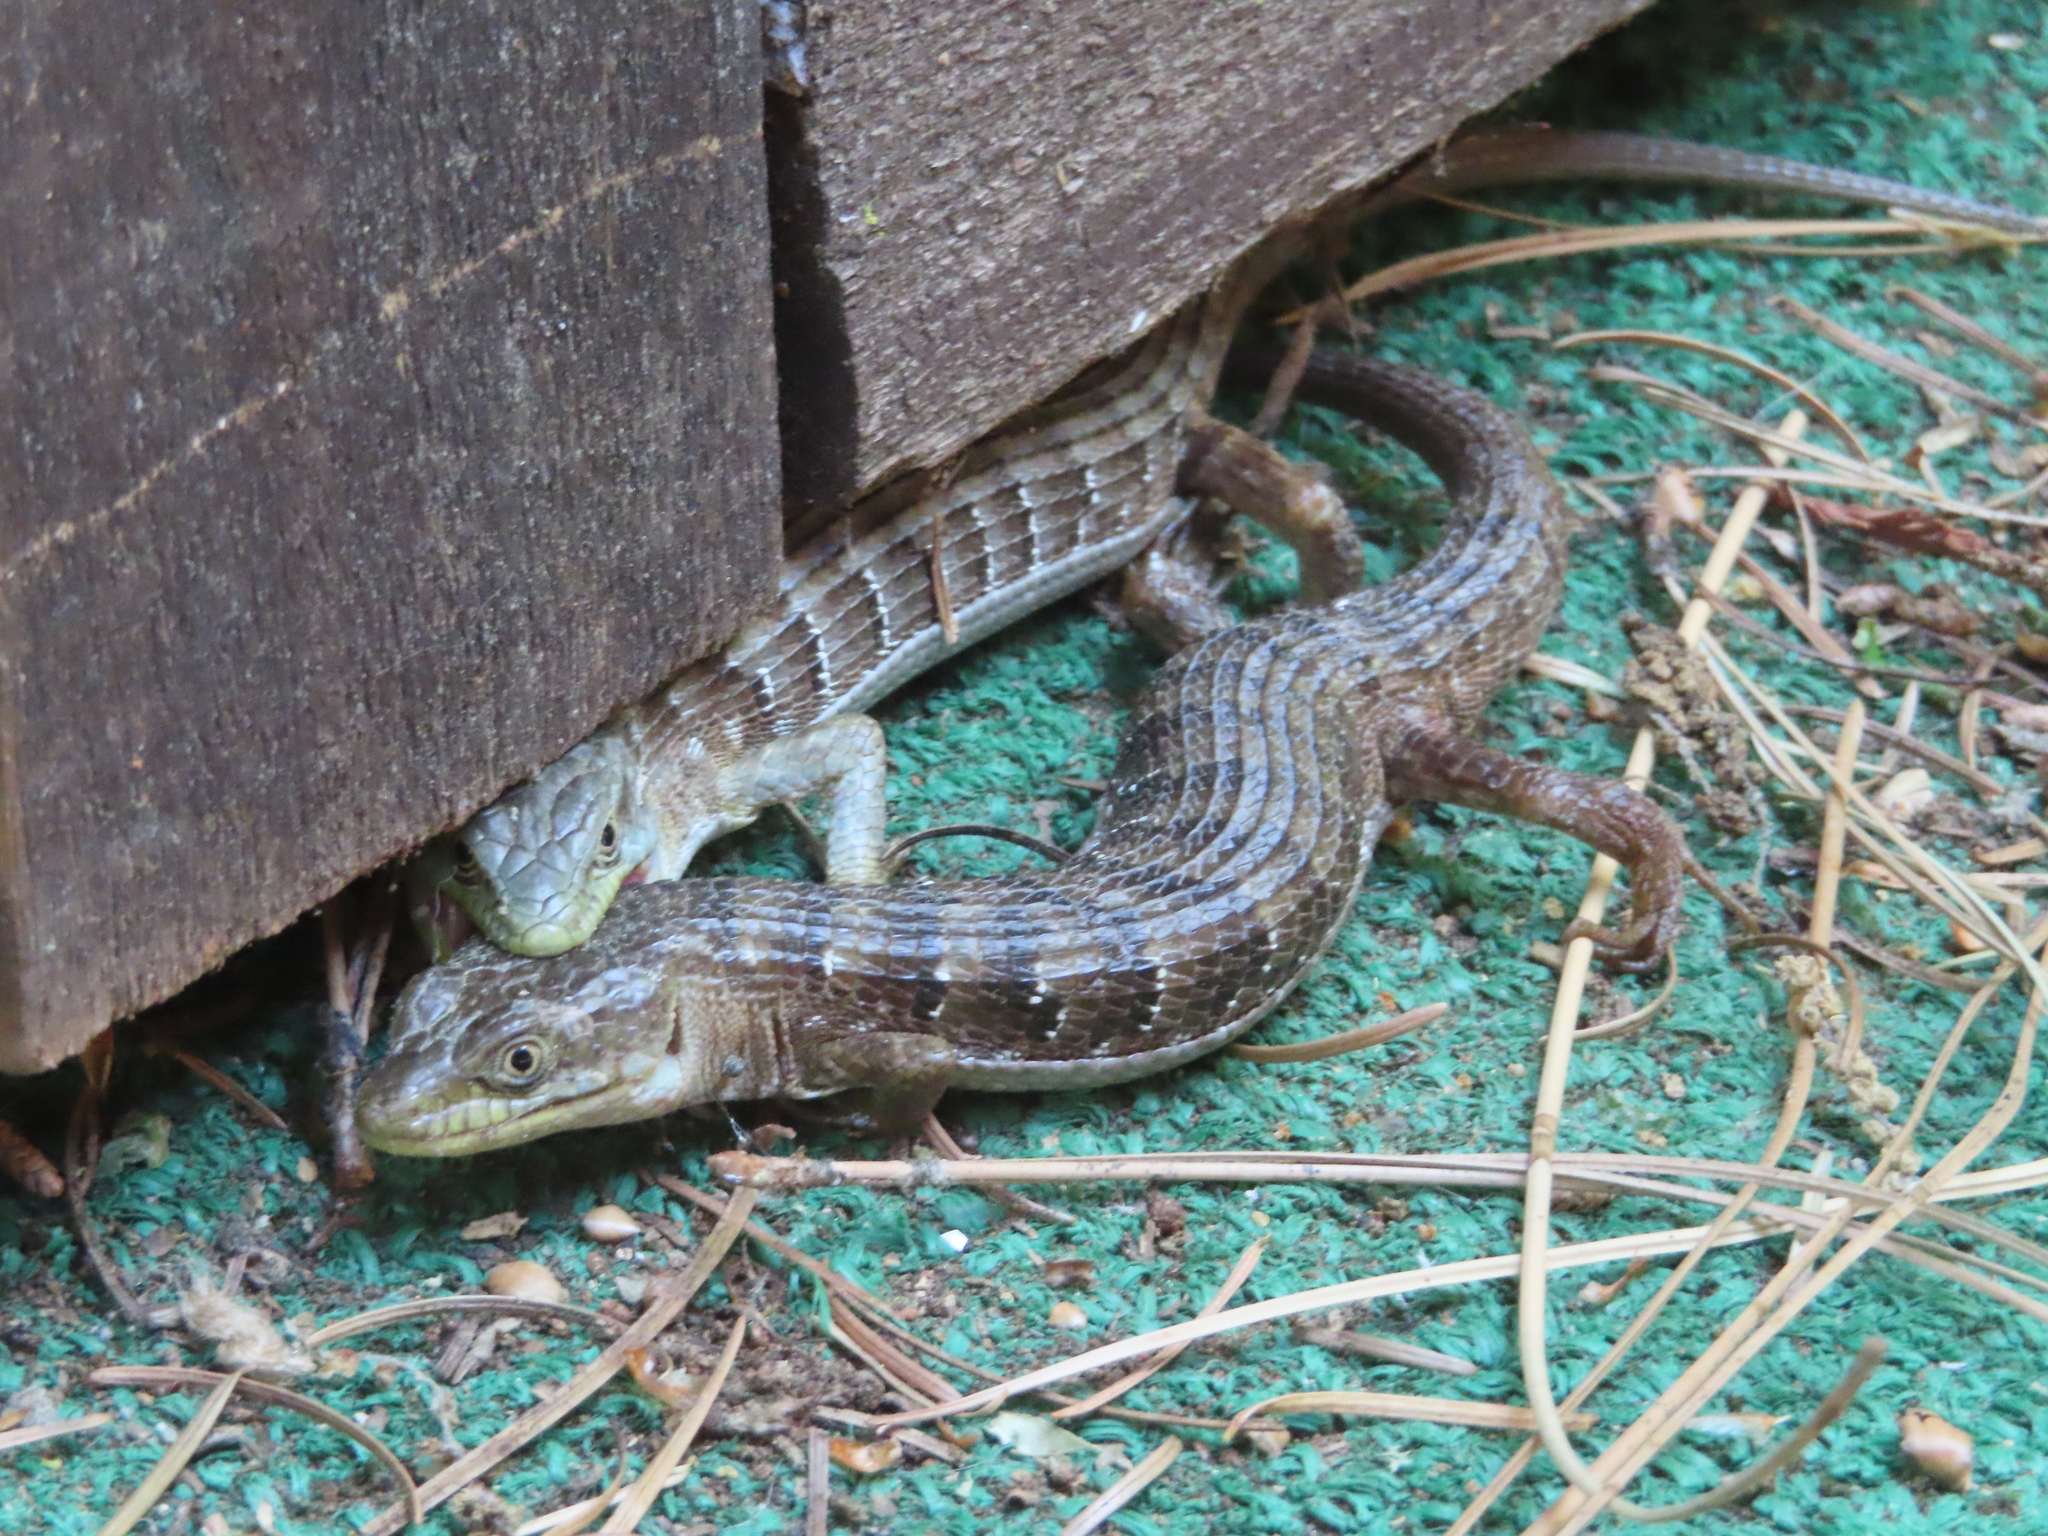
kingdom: Animalia
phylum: Chordata
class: Squamata
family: Anguidae
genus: Elgaria
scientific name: Elgaria multicarinata
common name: Southern alligator lizard
